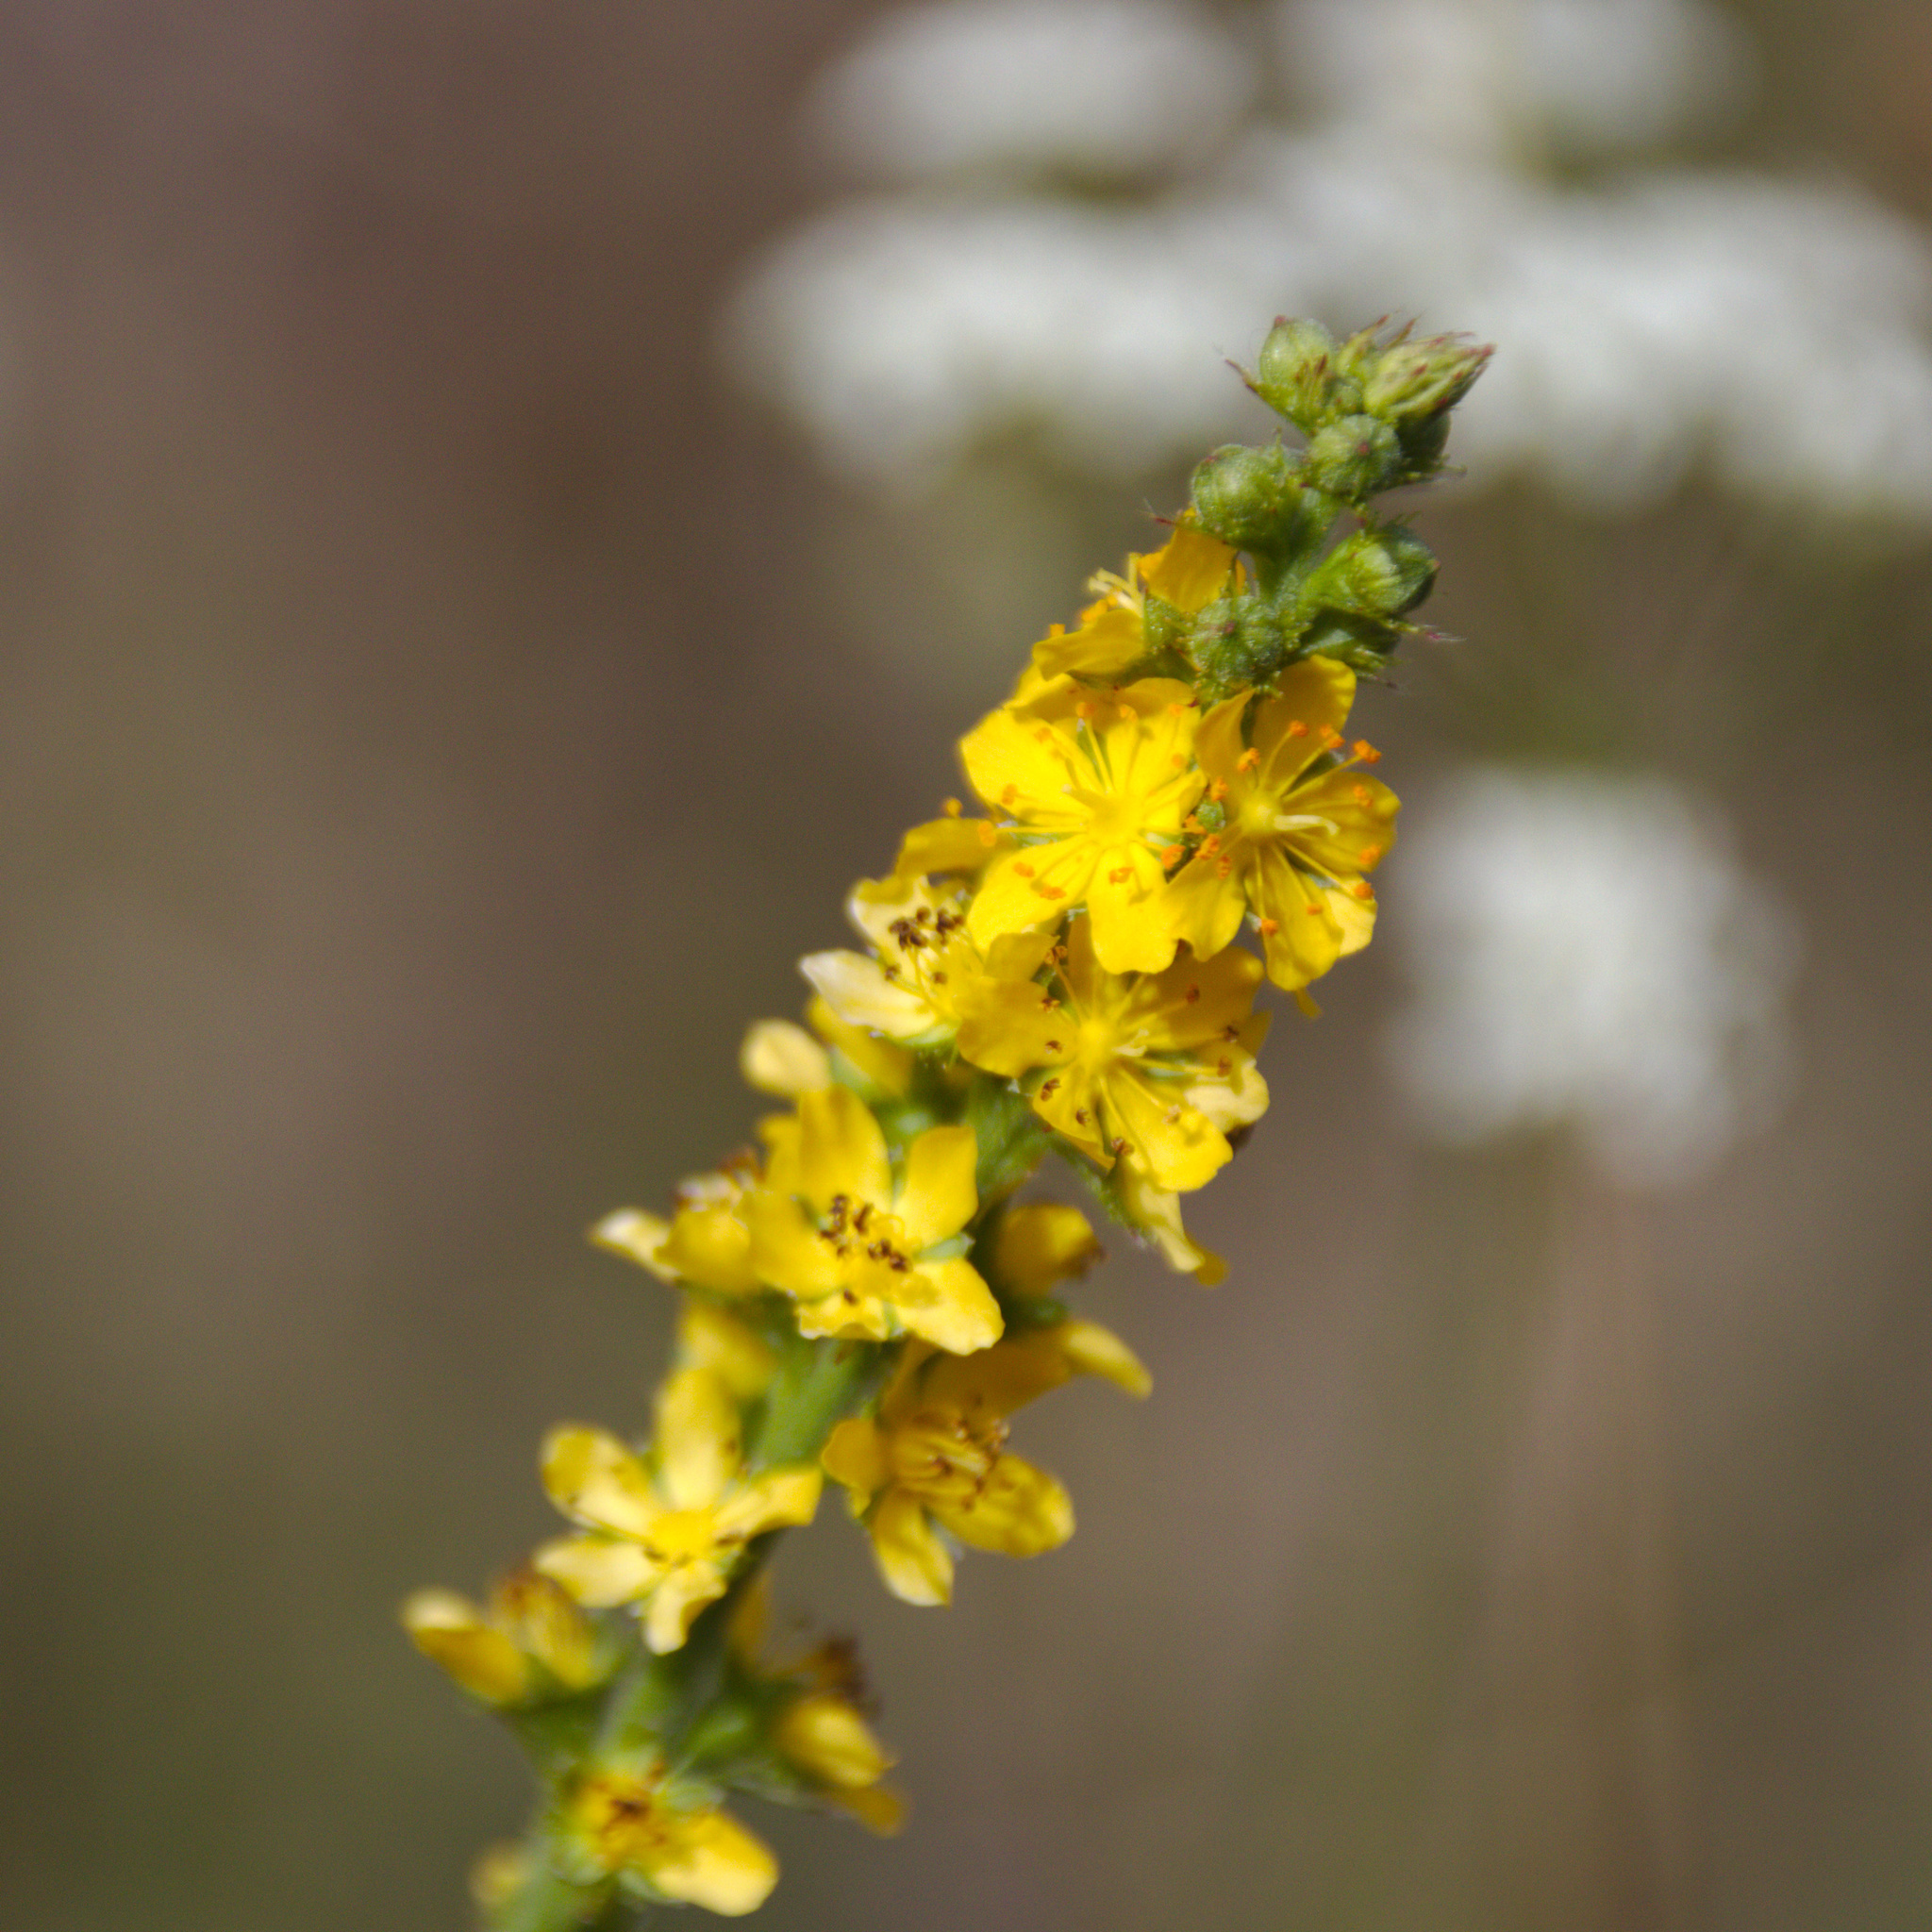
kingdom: Plantae
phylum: Tracheophyta
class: Magnoliopsida
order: Rosales
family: Rosaceae
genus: Agrimonia
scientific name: Agrimonia pilosa
